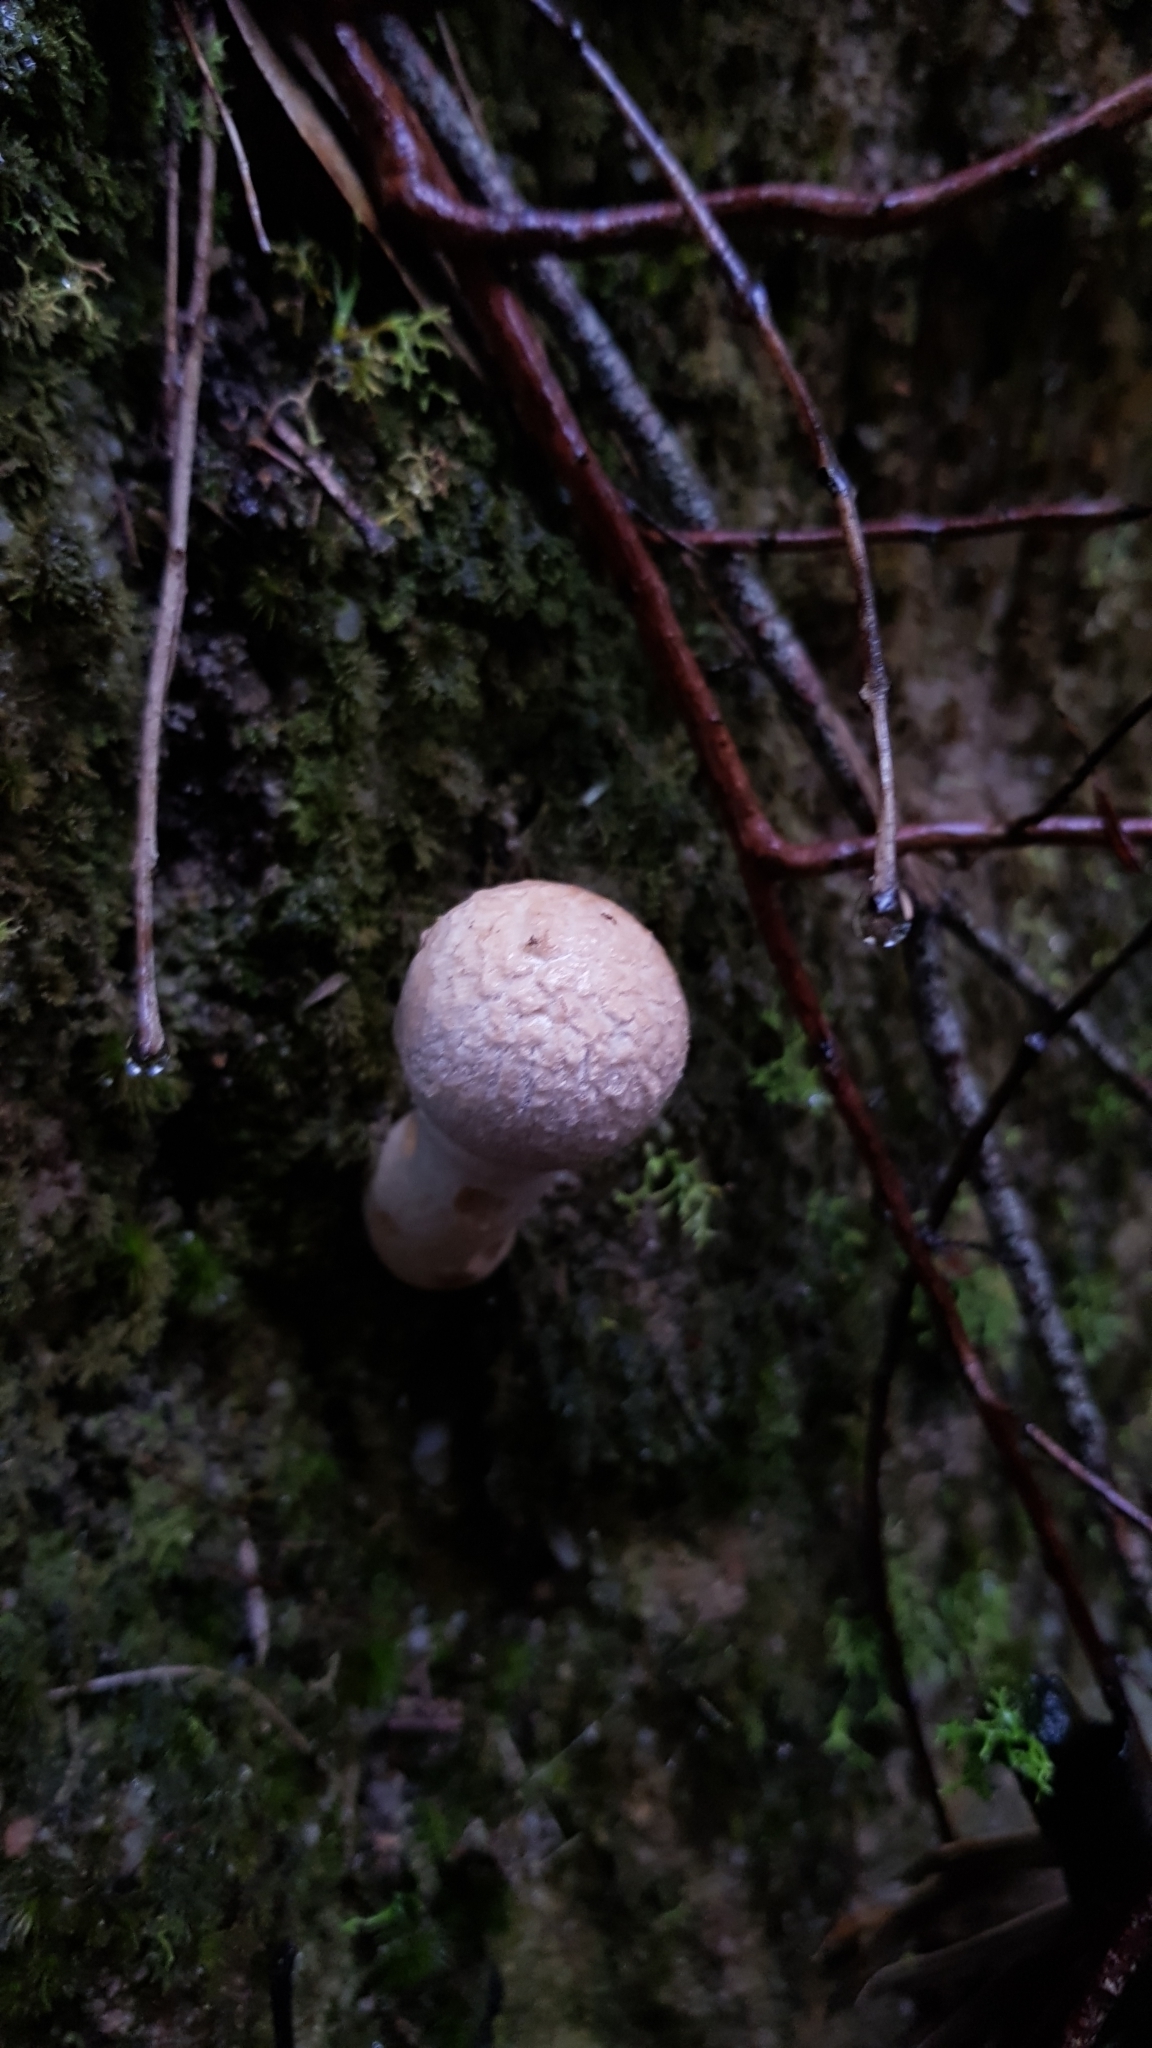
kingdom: Fungi
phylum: Basidiomycota
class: Agaricomycetes
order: Boletales
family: Boletaceae
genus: Boletellus
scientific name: Boletellus dissiliens
